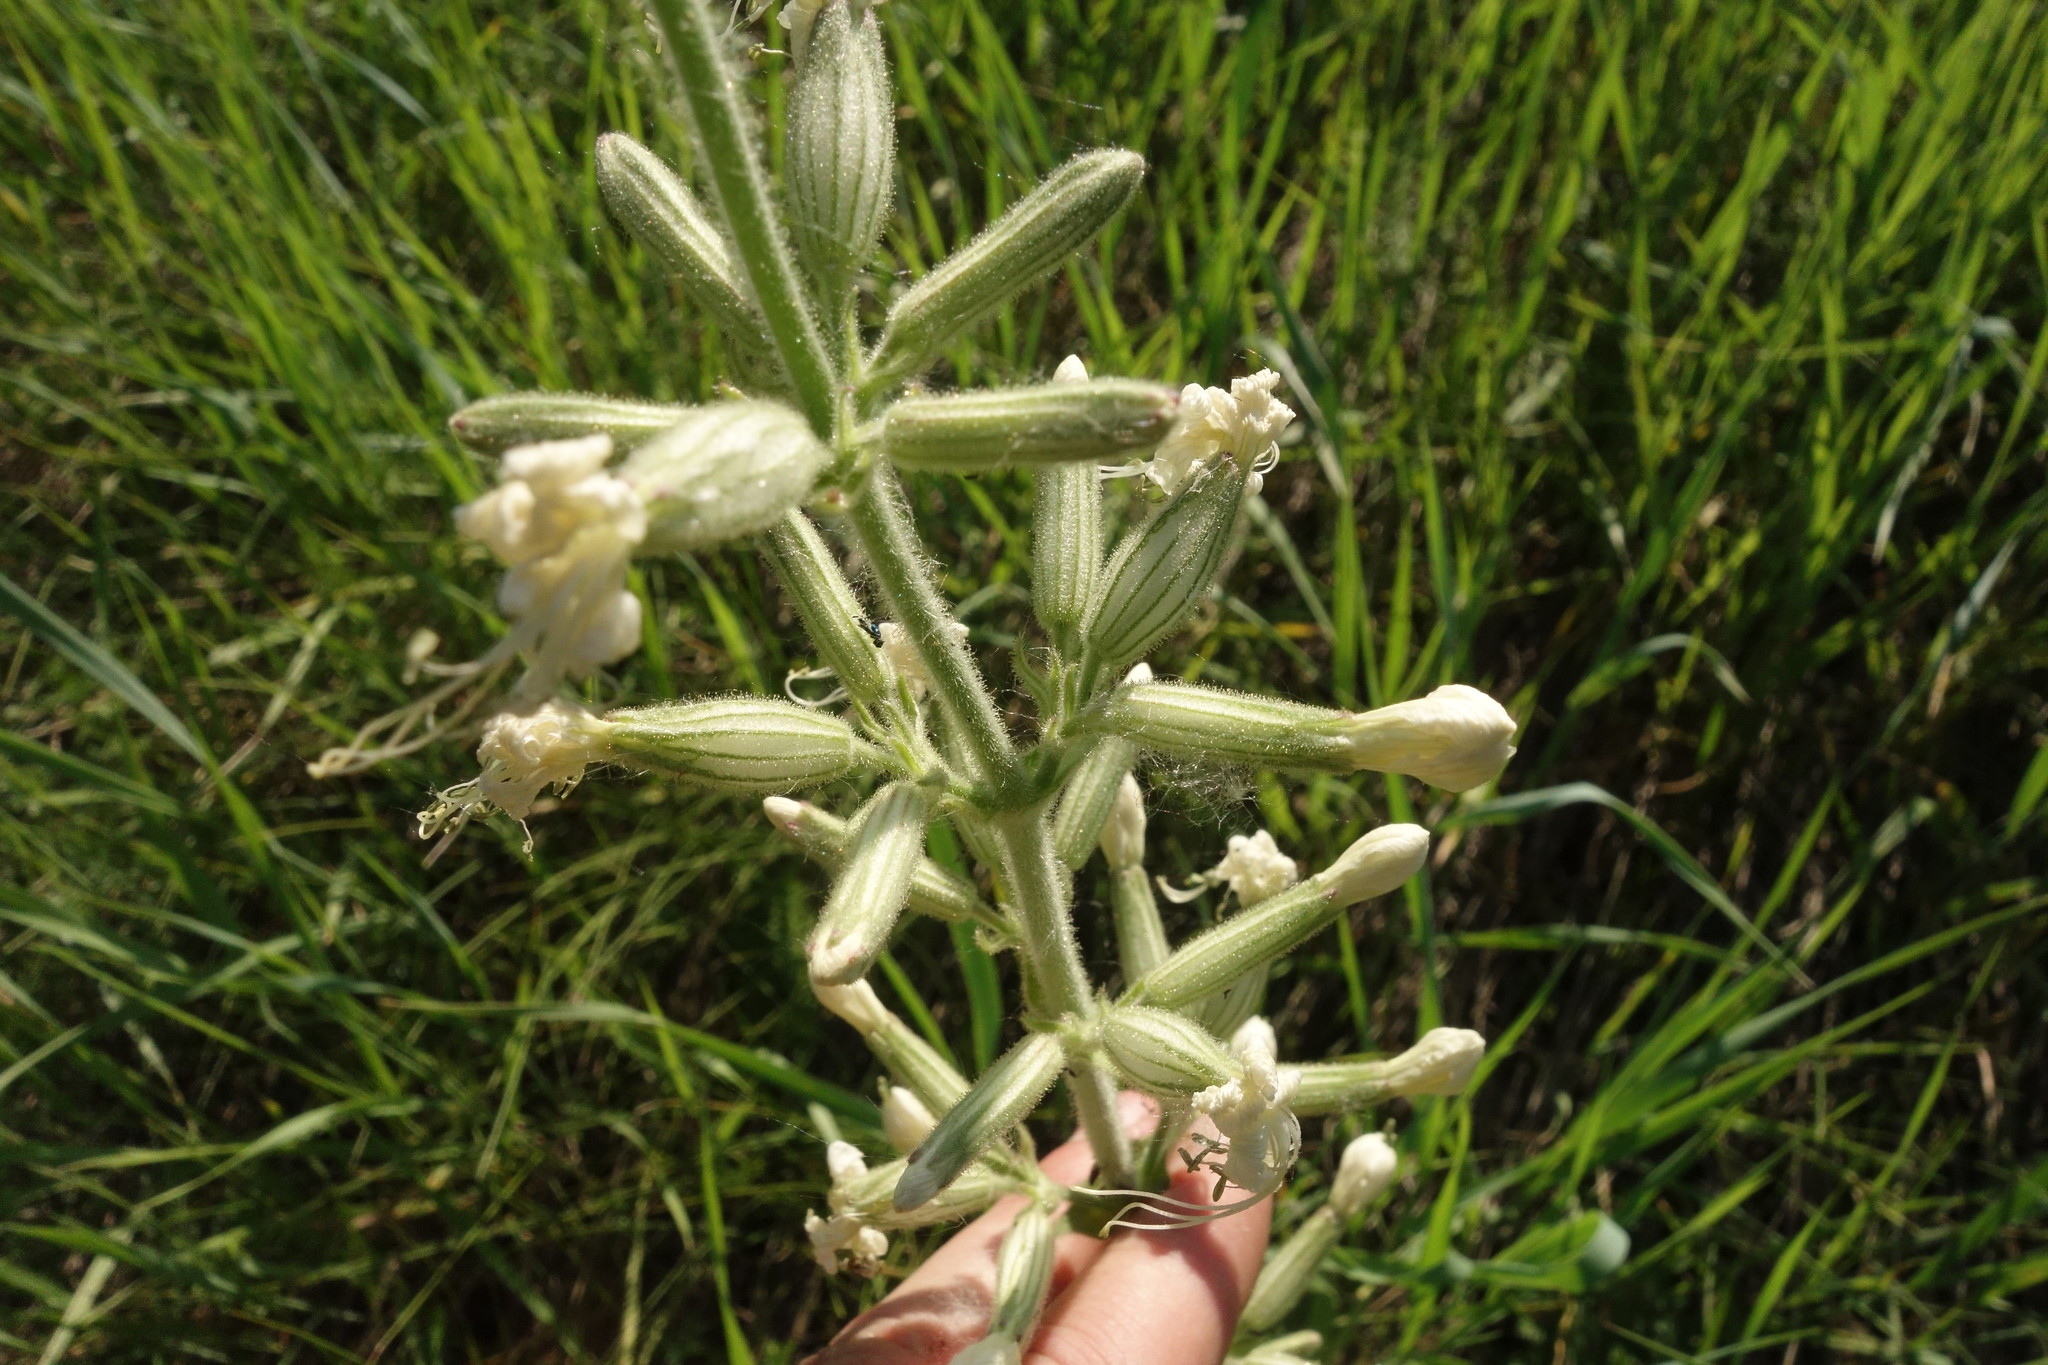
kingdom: Plantae
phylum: Tracheophyta
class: Magnoliopsida
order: Caryophyllales
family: Caryophyllaceae
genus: Silene
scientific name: Silene viscosa
